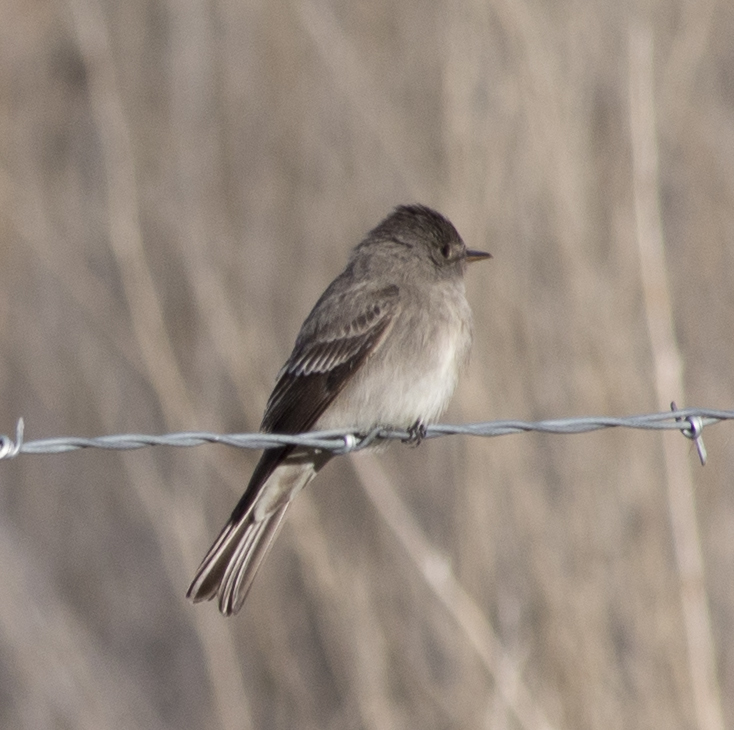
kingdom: Animalia
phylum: Chordata
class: Aves
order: Passeriformes
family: Tyrannidae
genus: Contopus
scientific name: Contopus sordidulus
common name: Western wood-pewee
